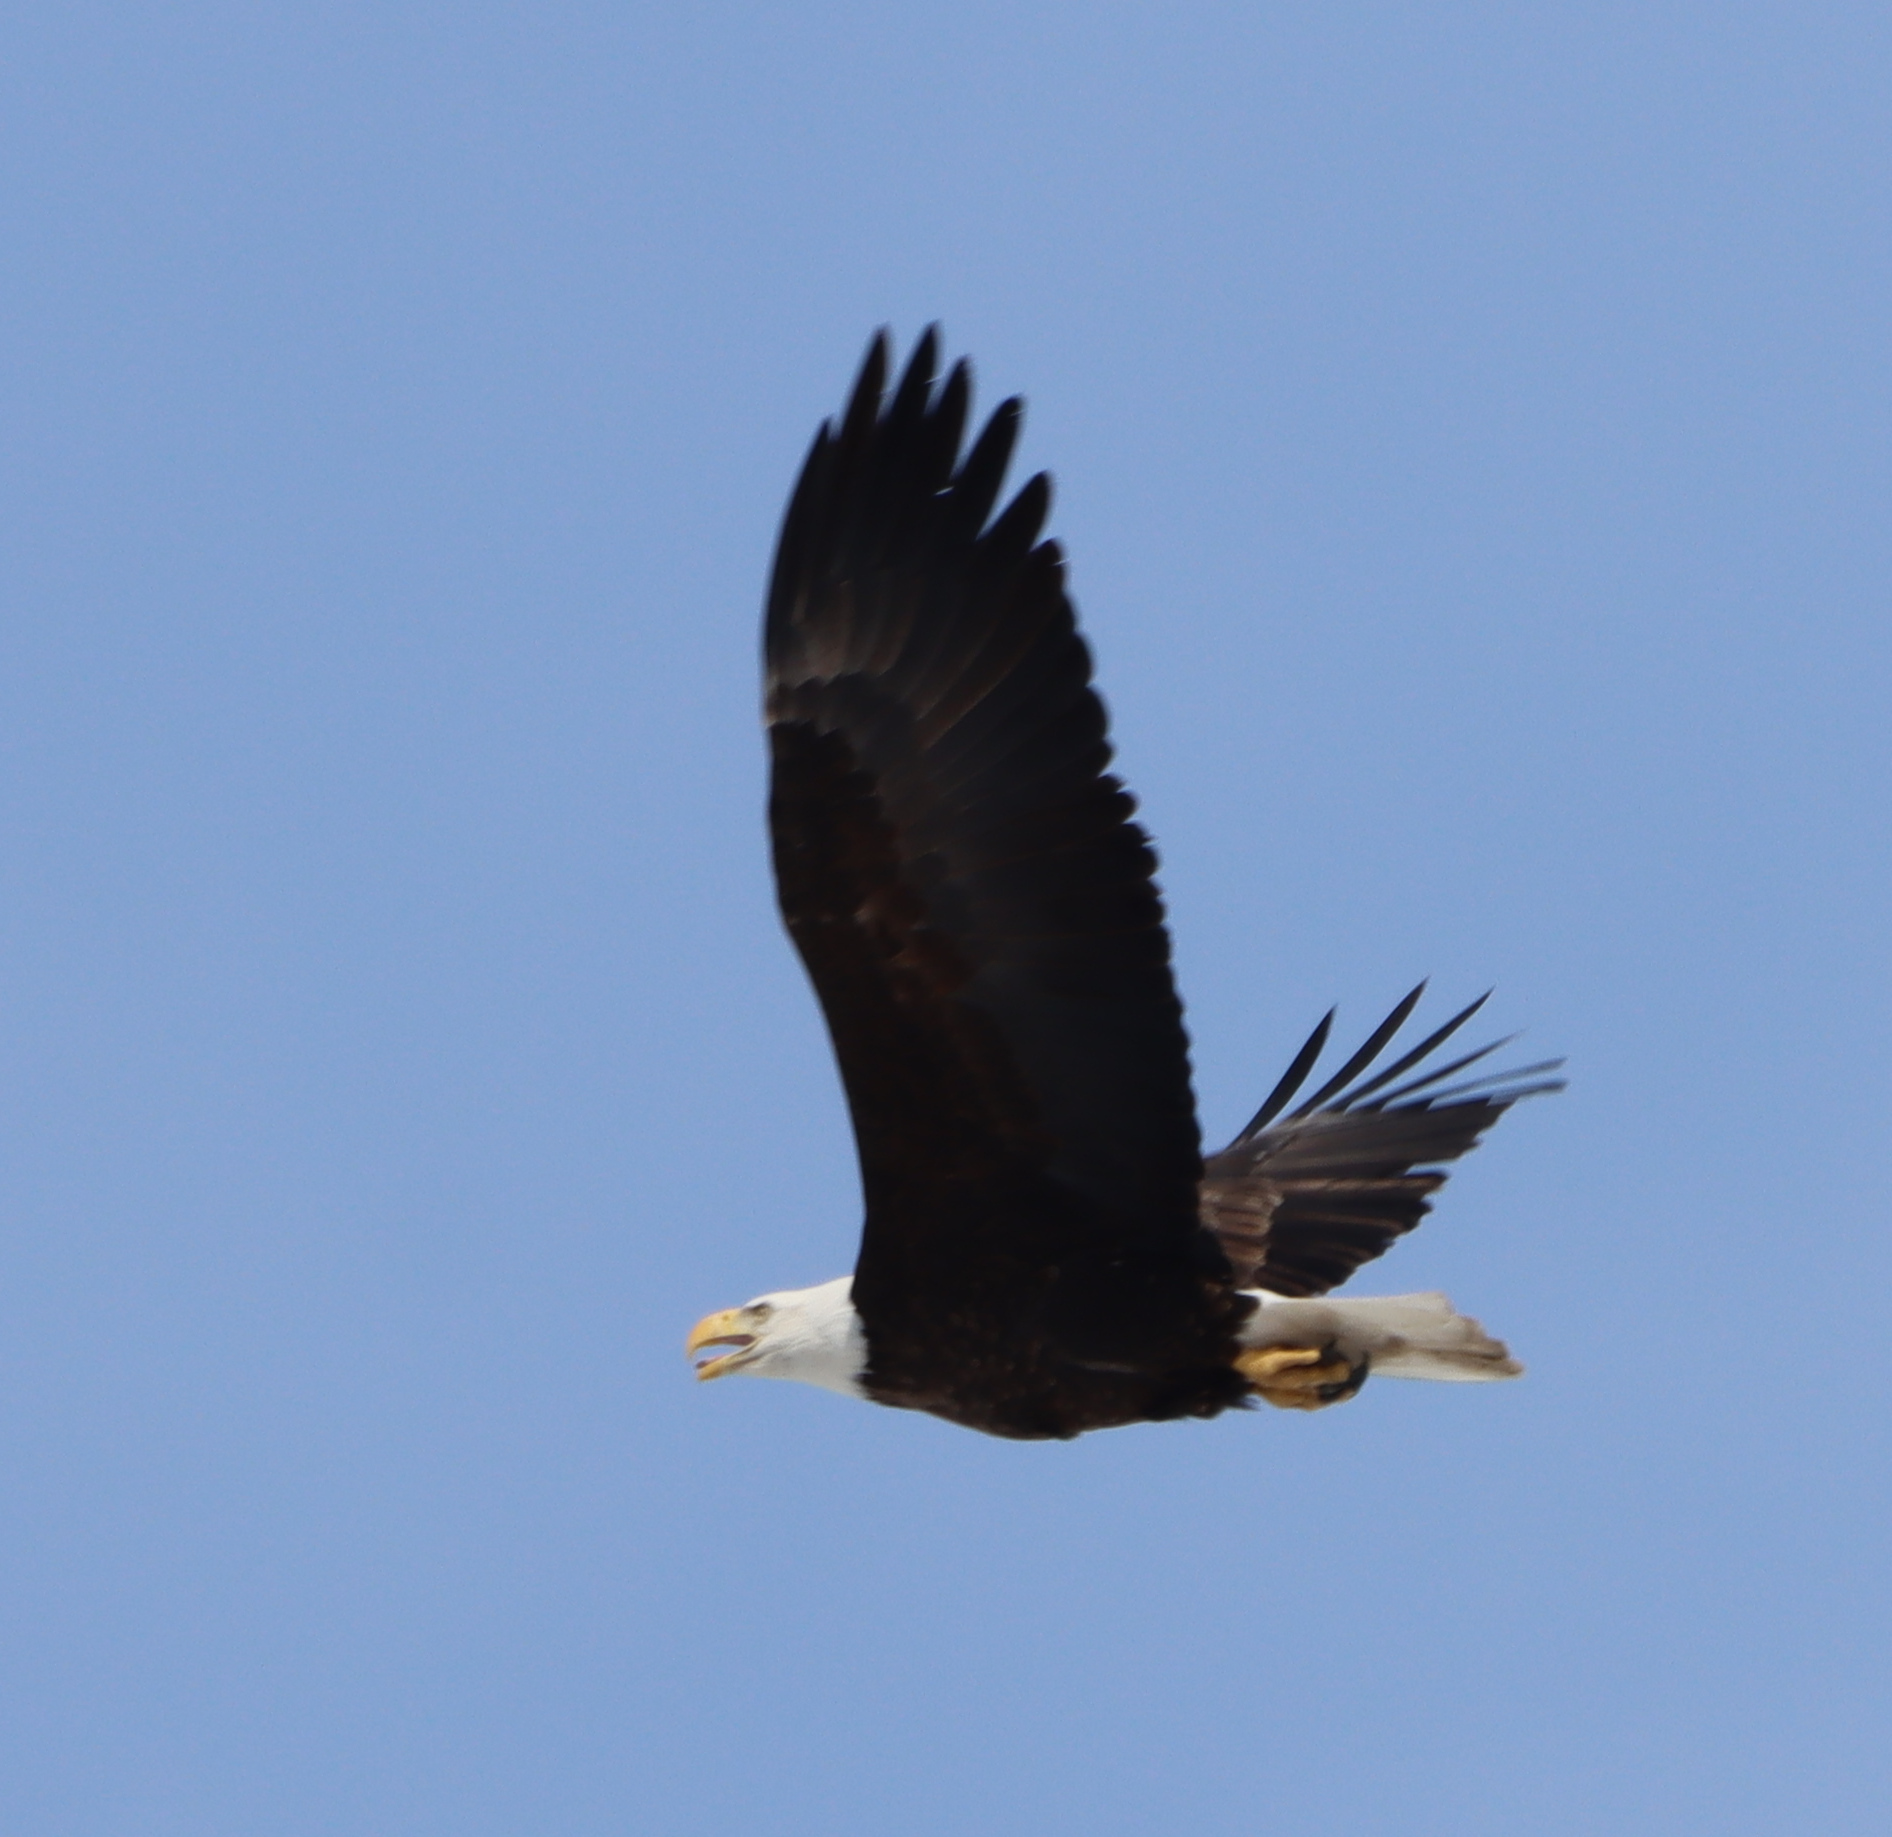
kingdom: Animalia
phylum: Chordata
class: Aves
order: Accipitriformes
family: Accipitridae
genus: Haliaeetus
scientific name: Haliaeetus leucocephalus
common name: Bald eagle
